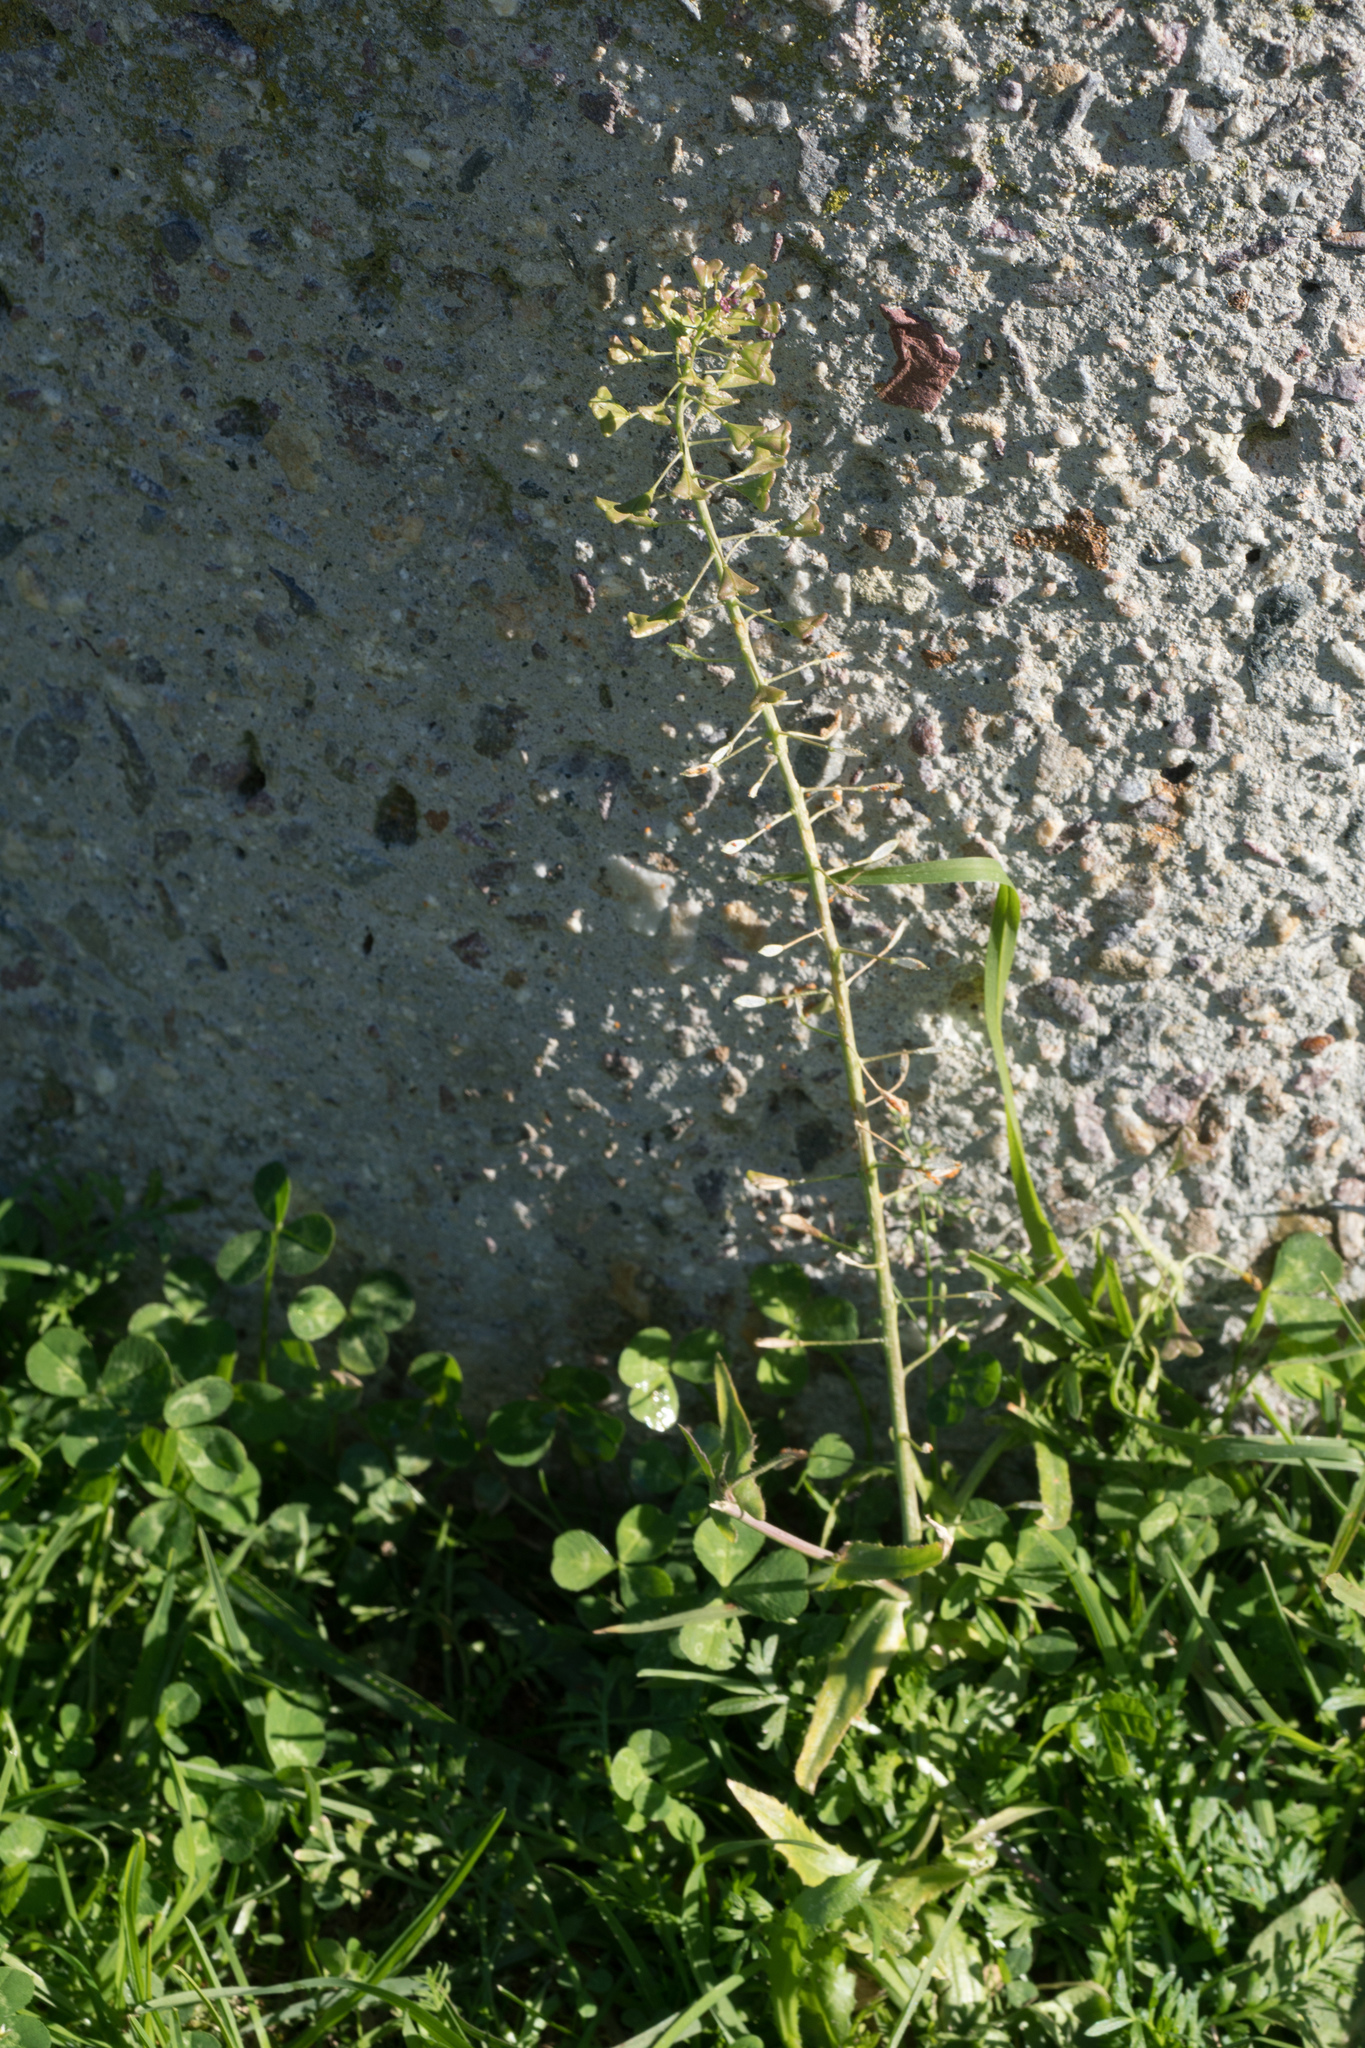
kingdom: Plantae
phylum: Tracheophyta
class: Magnoliopsida
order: Brassicales
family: Brassicaceae
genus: Capsella
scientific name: Capsella bursa-pastoris
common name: Shepherd's purse
